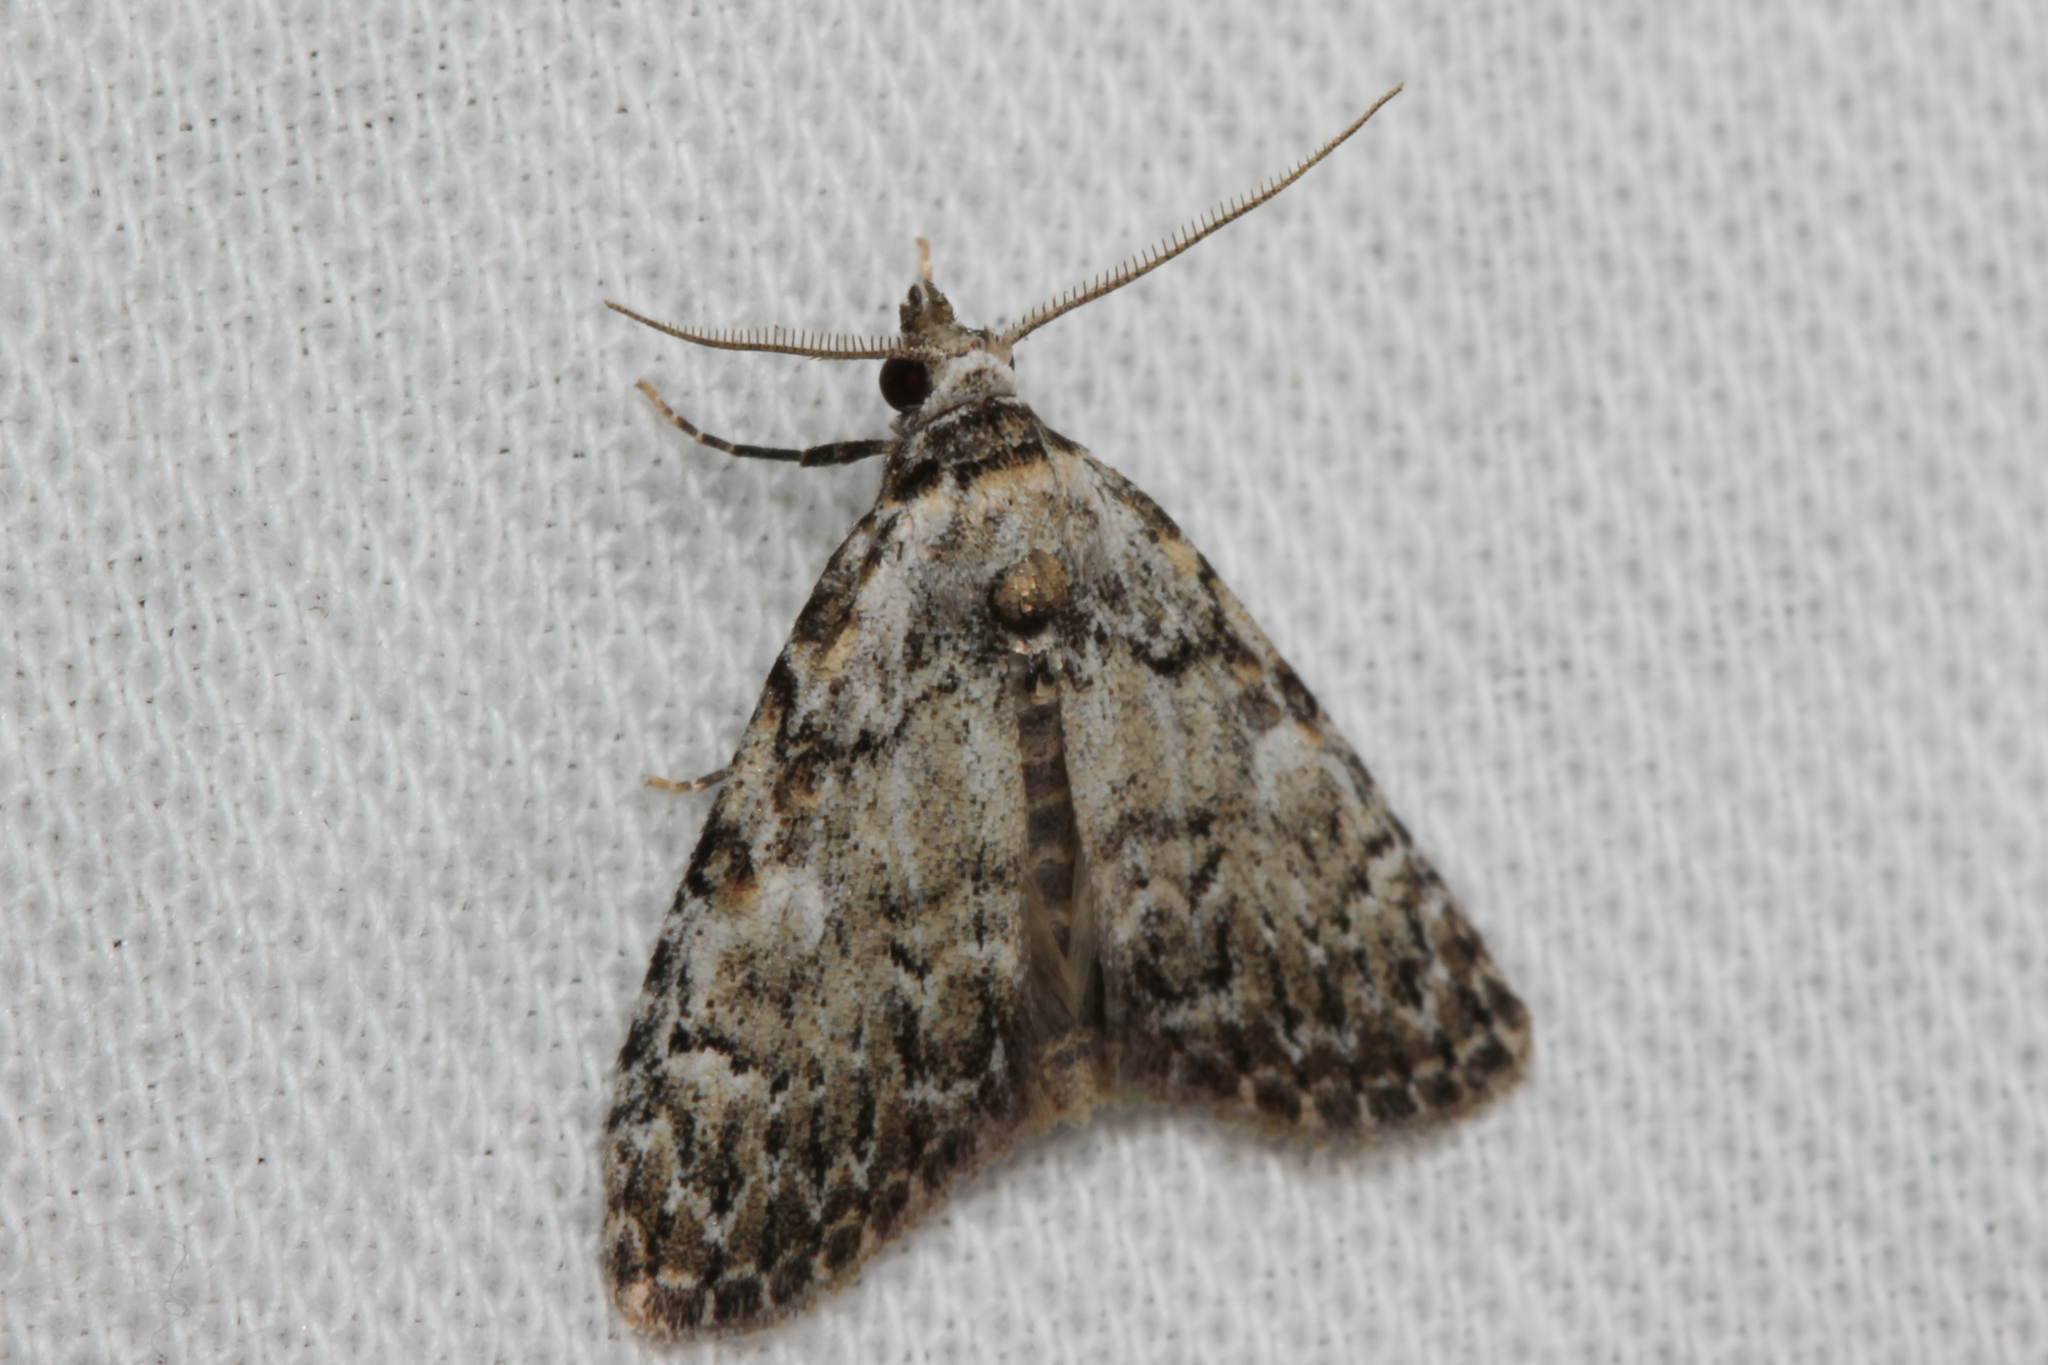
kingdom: Animalia
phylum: Arthropoda
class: Insecta
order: Lepidoptera
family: Nolidae
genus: Meganola
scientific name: Meganola strigula
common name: Small black arches
